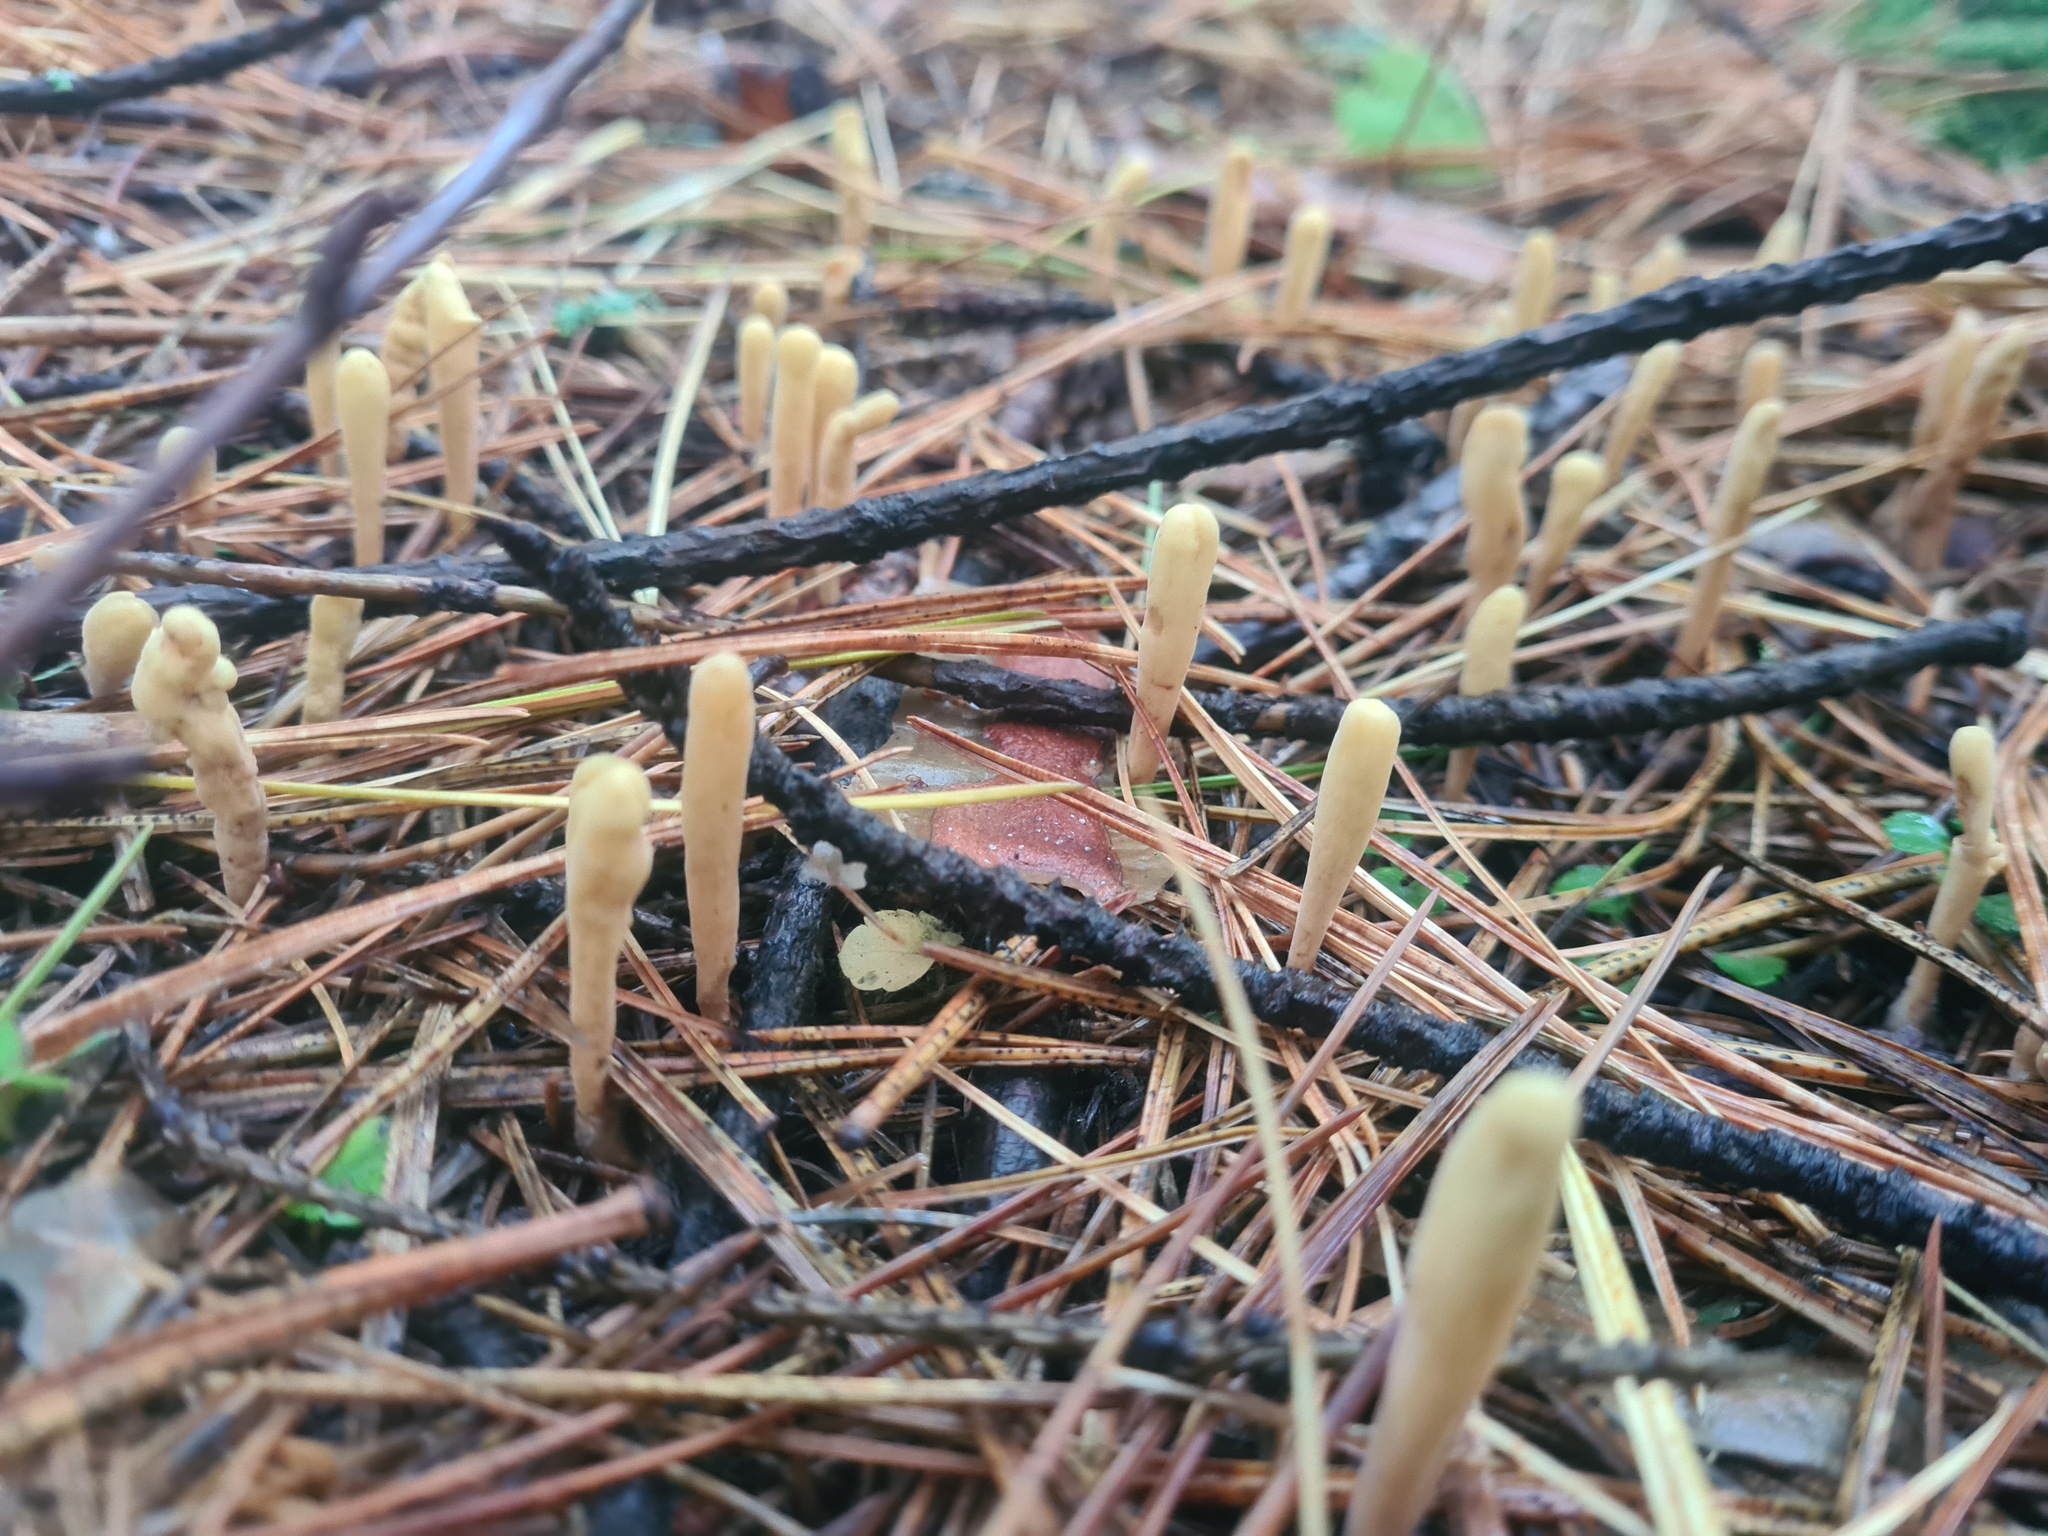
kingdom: Fungi
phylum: Basidiomycota
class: Agaricomycetes
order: Gomphales
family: Clavariadelphaceae
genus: Clavariadelphus
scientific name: Clavariadelphus ligula
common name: Ochre club
